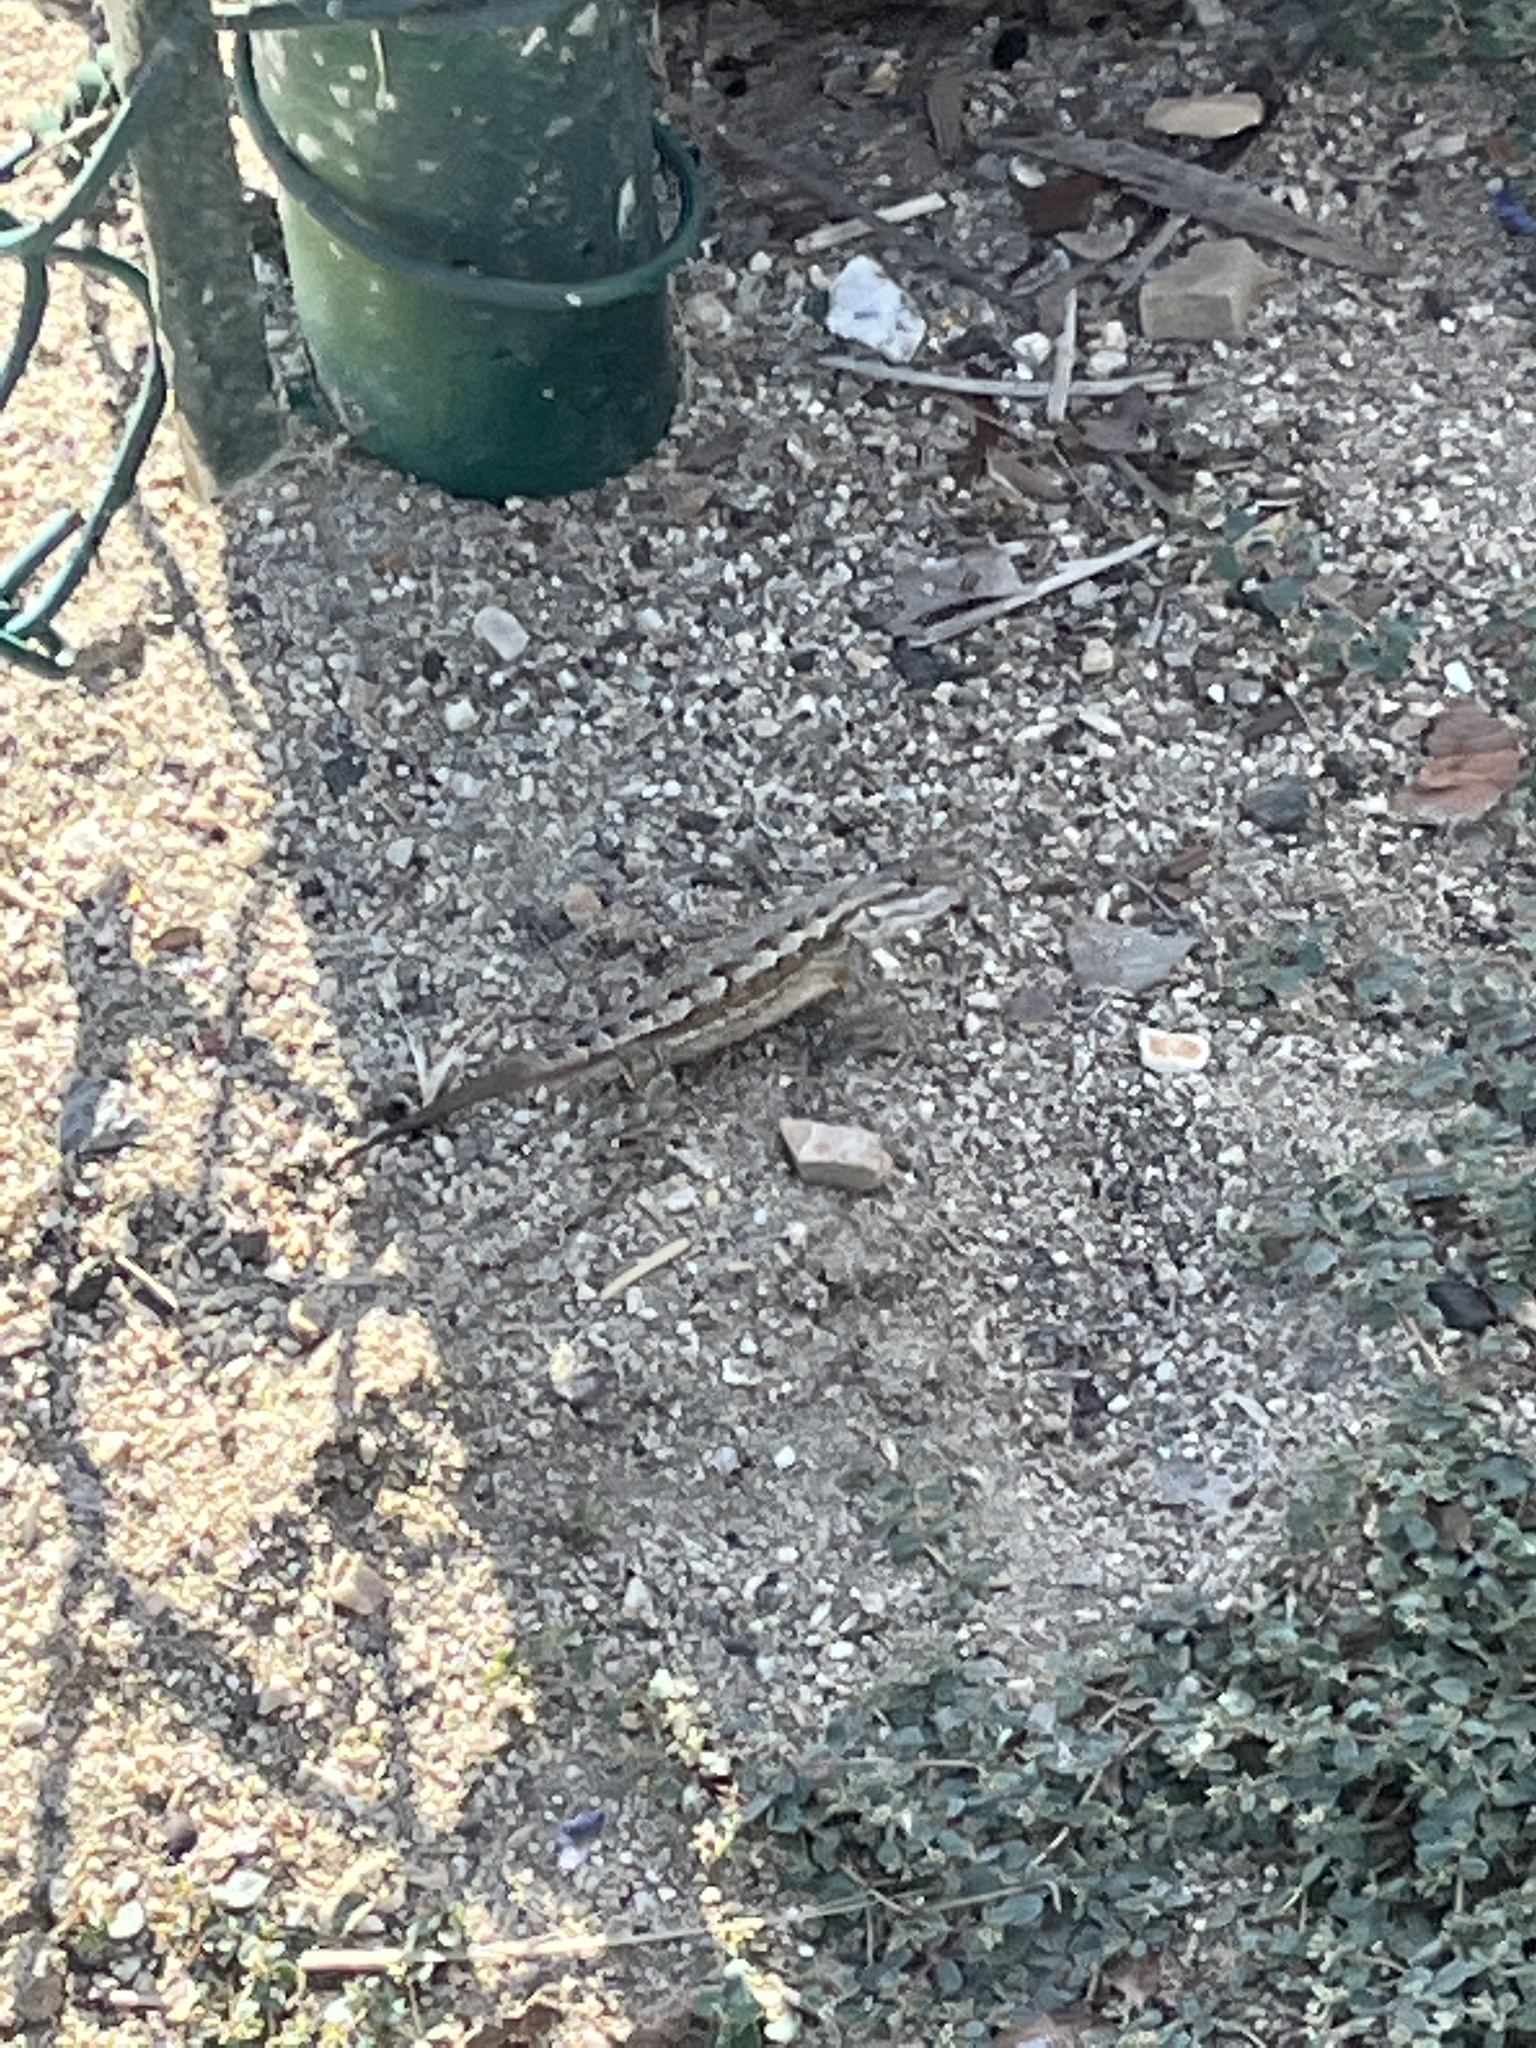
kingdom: Animalia
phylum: Chordata
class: Squamata
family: Phrynosomatidae
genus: Sceloporus
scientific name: Sceloporus occidentalis
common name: Western fence lizard
